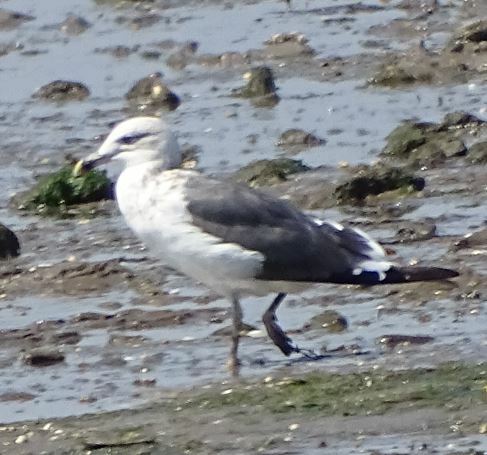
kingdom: Animalia
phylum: Chordata
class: Aves
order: Charadriiformes
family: Laridae
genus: Larus
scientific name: Larus fuscus
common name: Lesser black-backed gull
